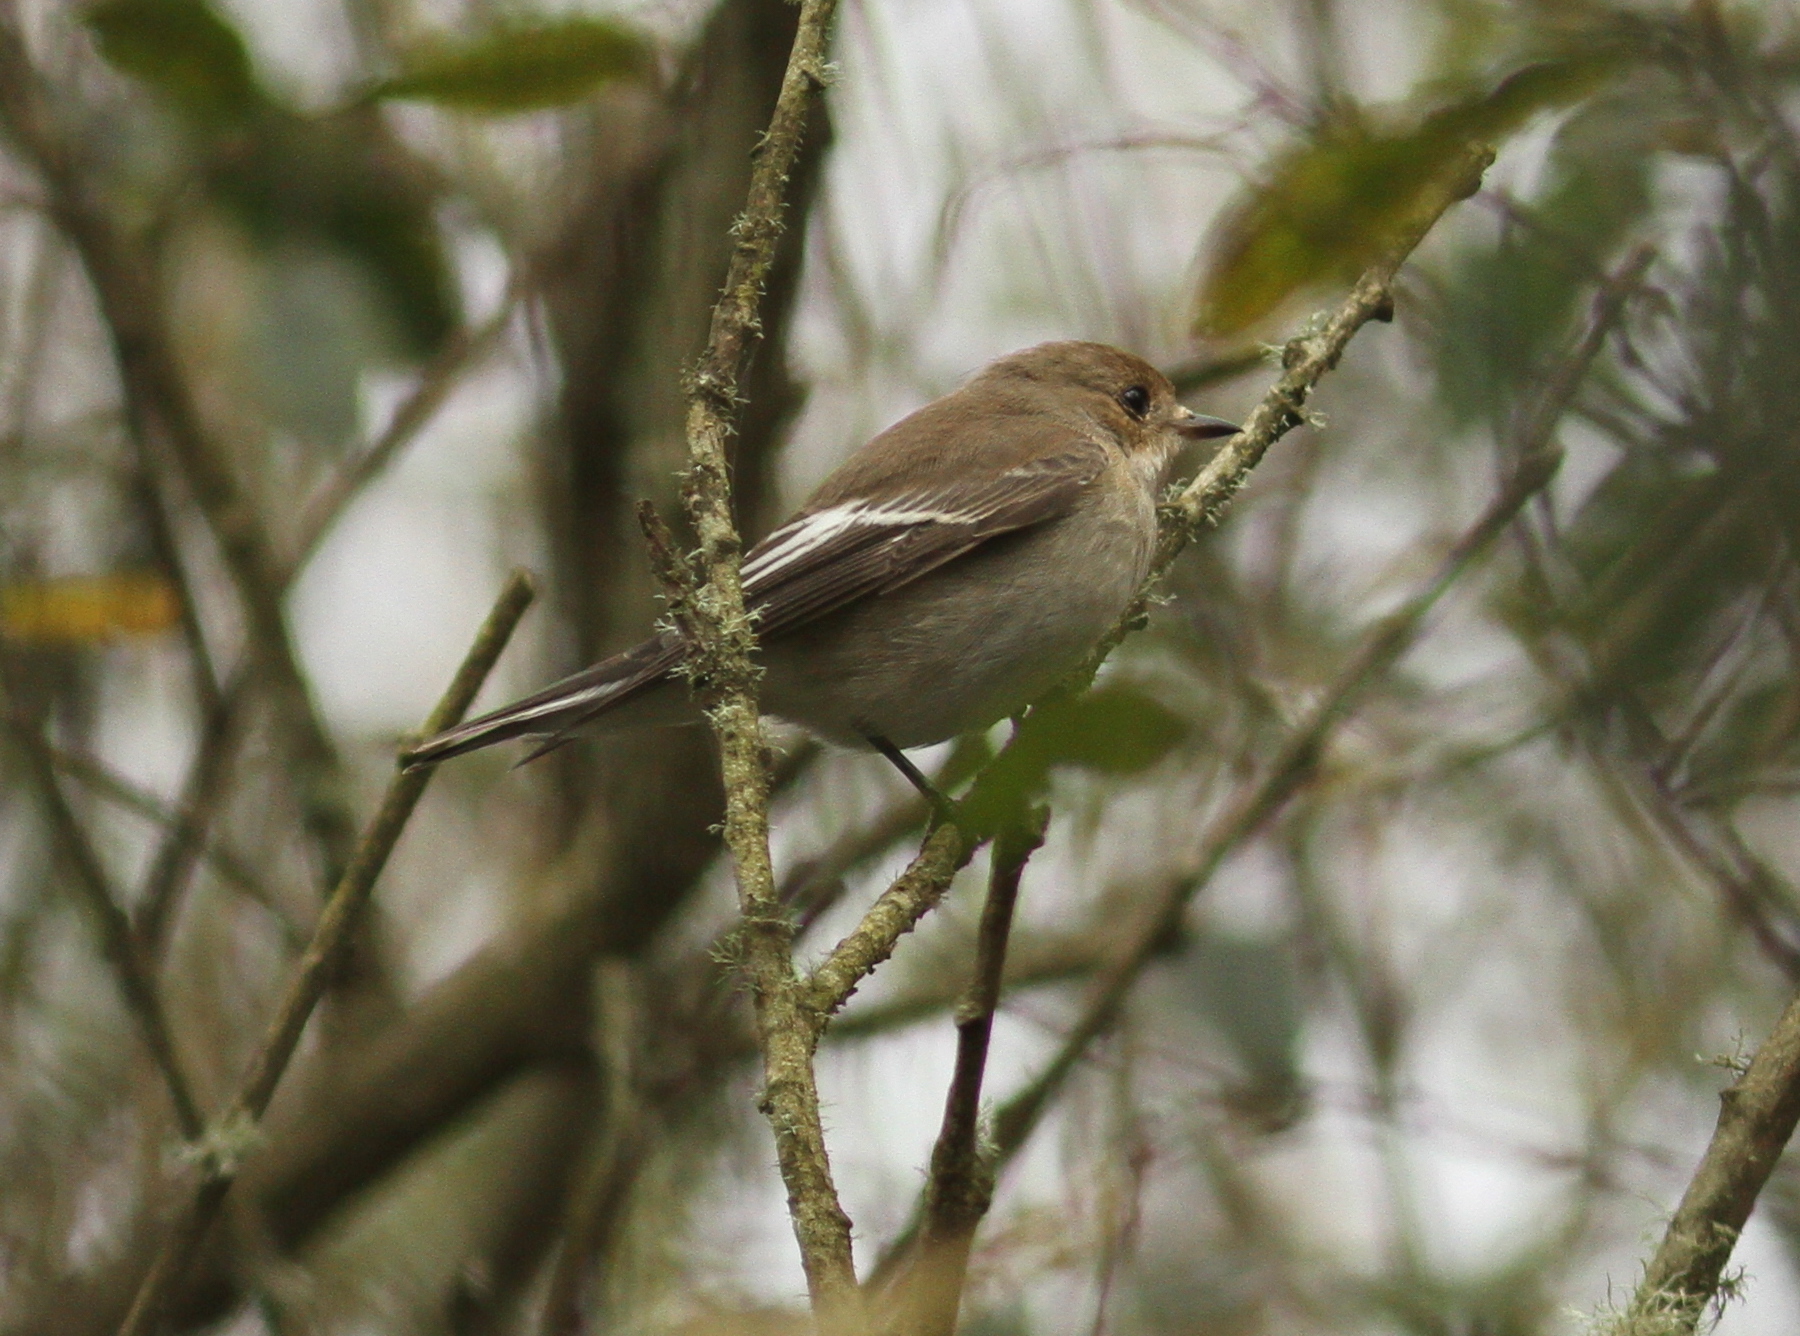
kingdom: Animalia
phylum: Chordata
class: Aves
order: Passeriformes
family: Muscicapidae
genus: Ficedula
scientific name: Ficedula hypoleuca
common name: European pied flycatcher
